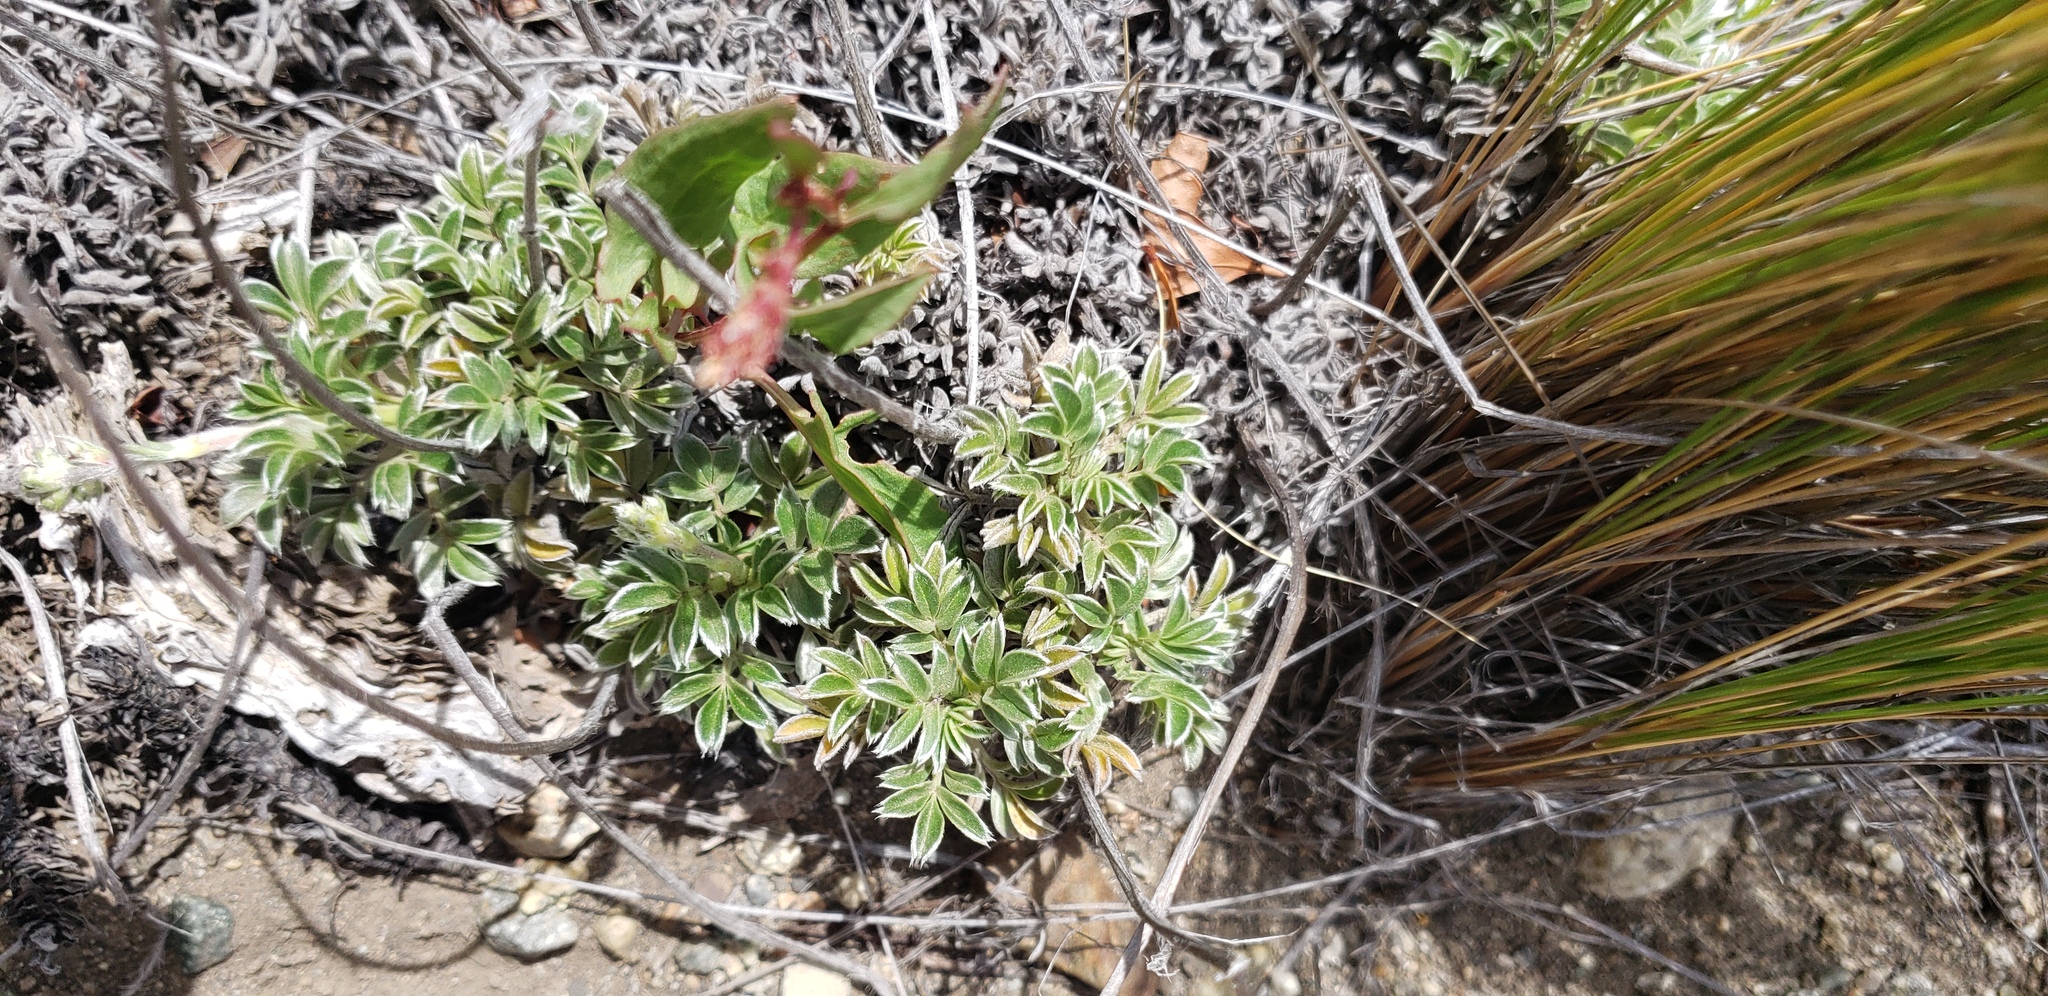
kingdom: Plantae
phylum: Tracheophyta
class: Magnoliopsida
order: Rosales
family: Rosaceae
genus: Acaena
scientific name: Acaena splendens
